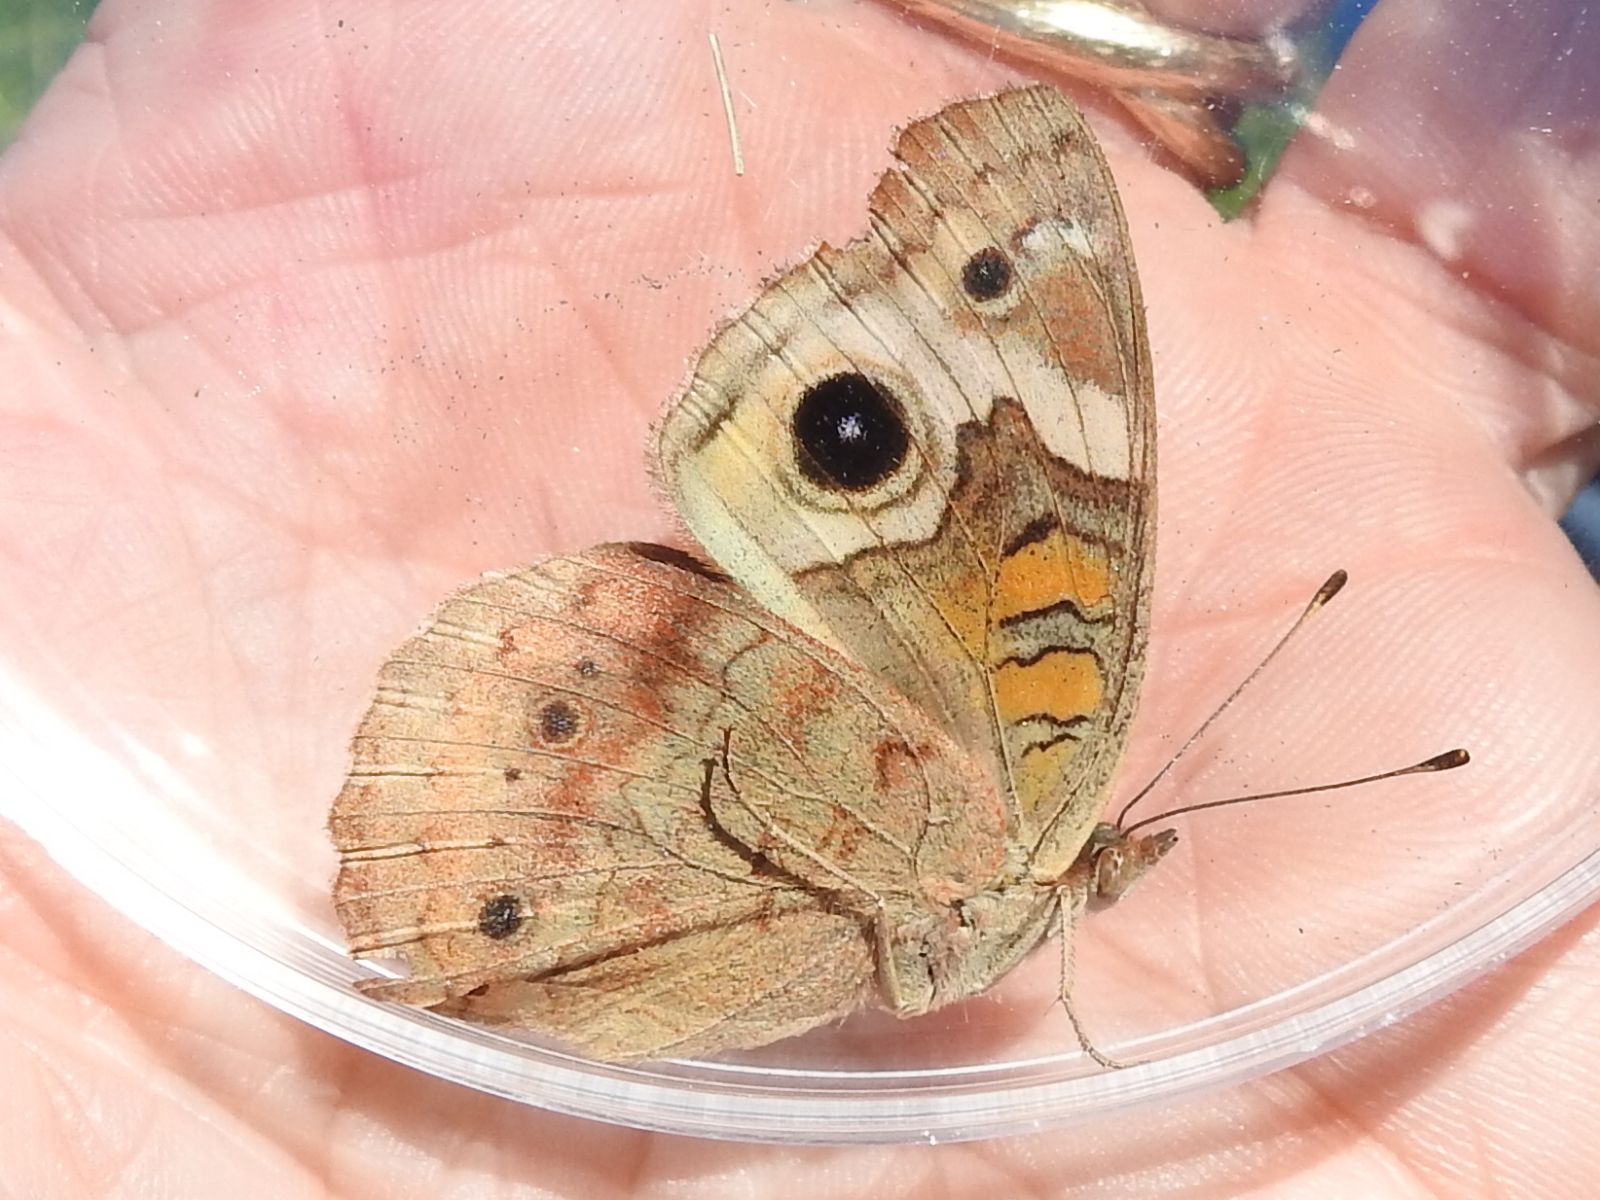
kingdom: Animalia
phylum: Arthropoda
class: Insecta
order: Lepidoptera
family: Nymphalidae
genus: Junonia
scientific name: Junonia coenia
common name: Common buckeye
